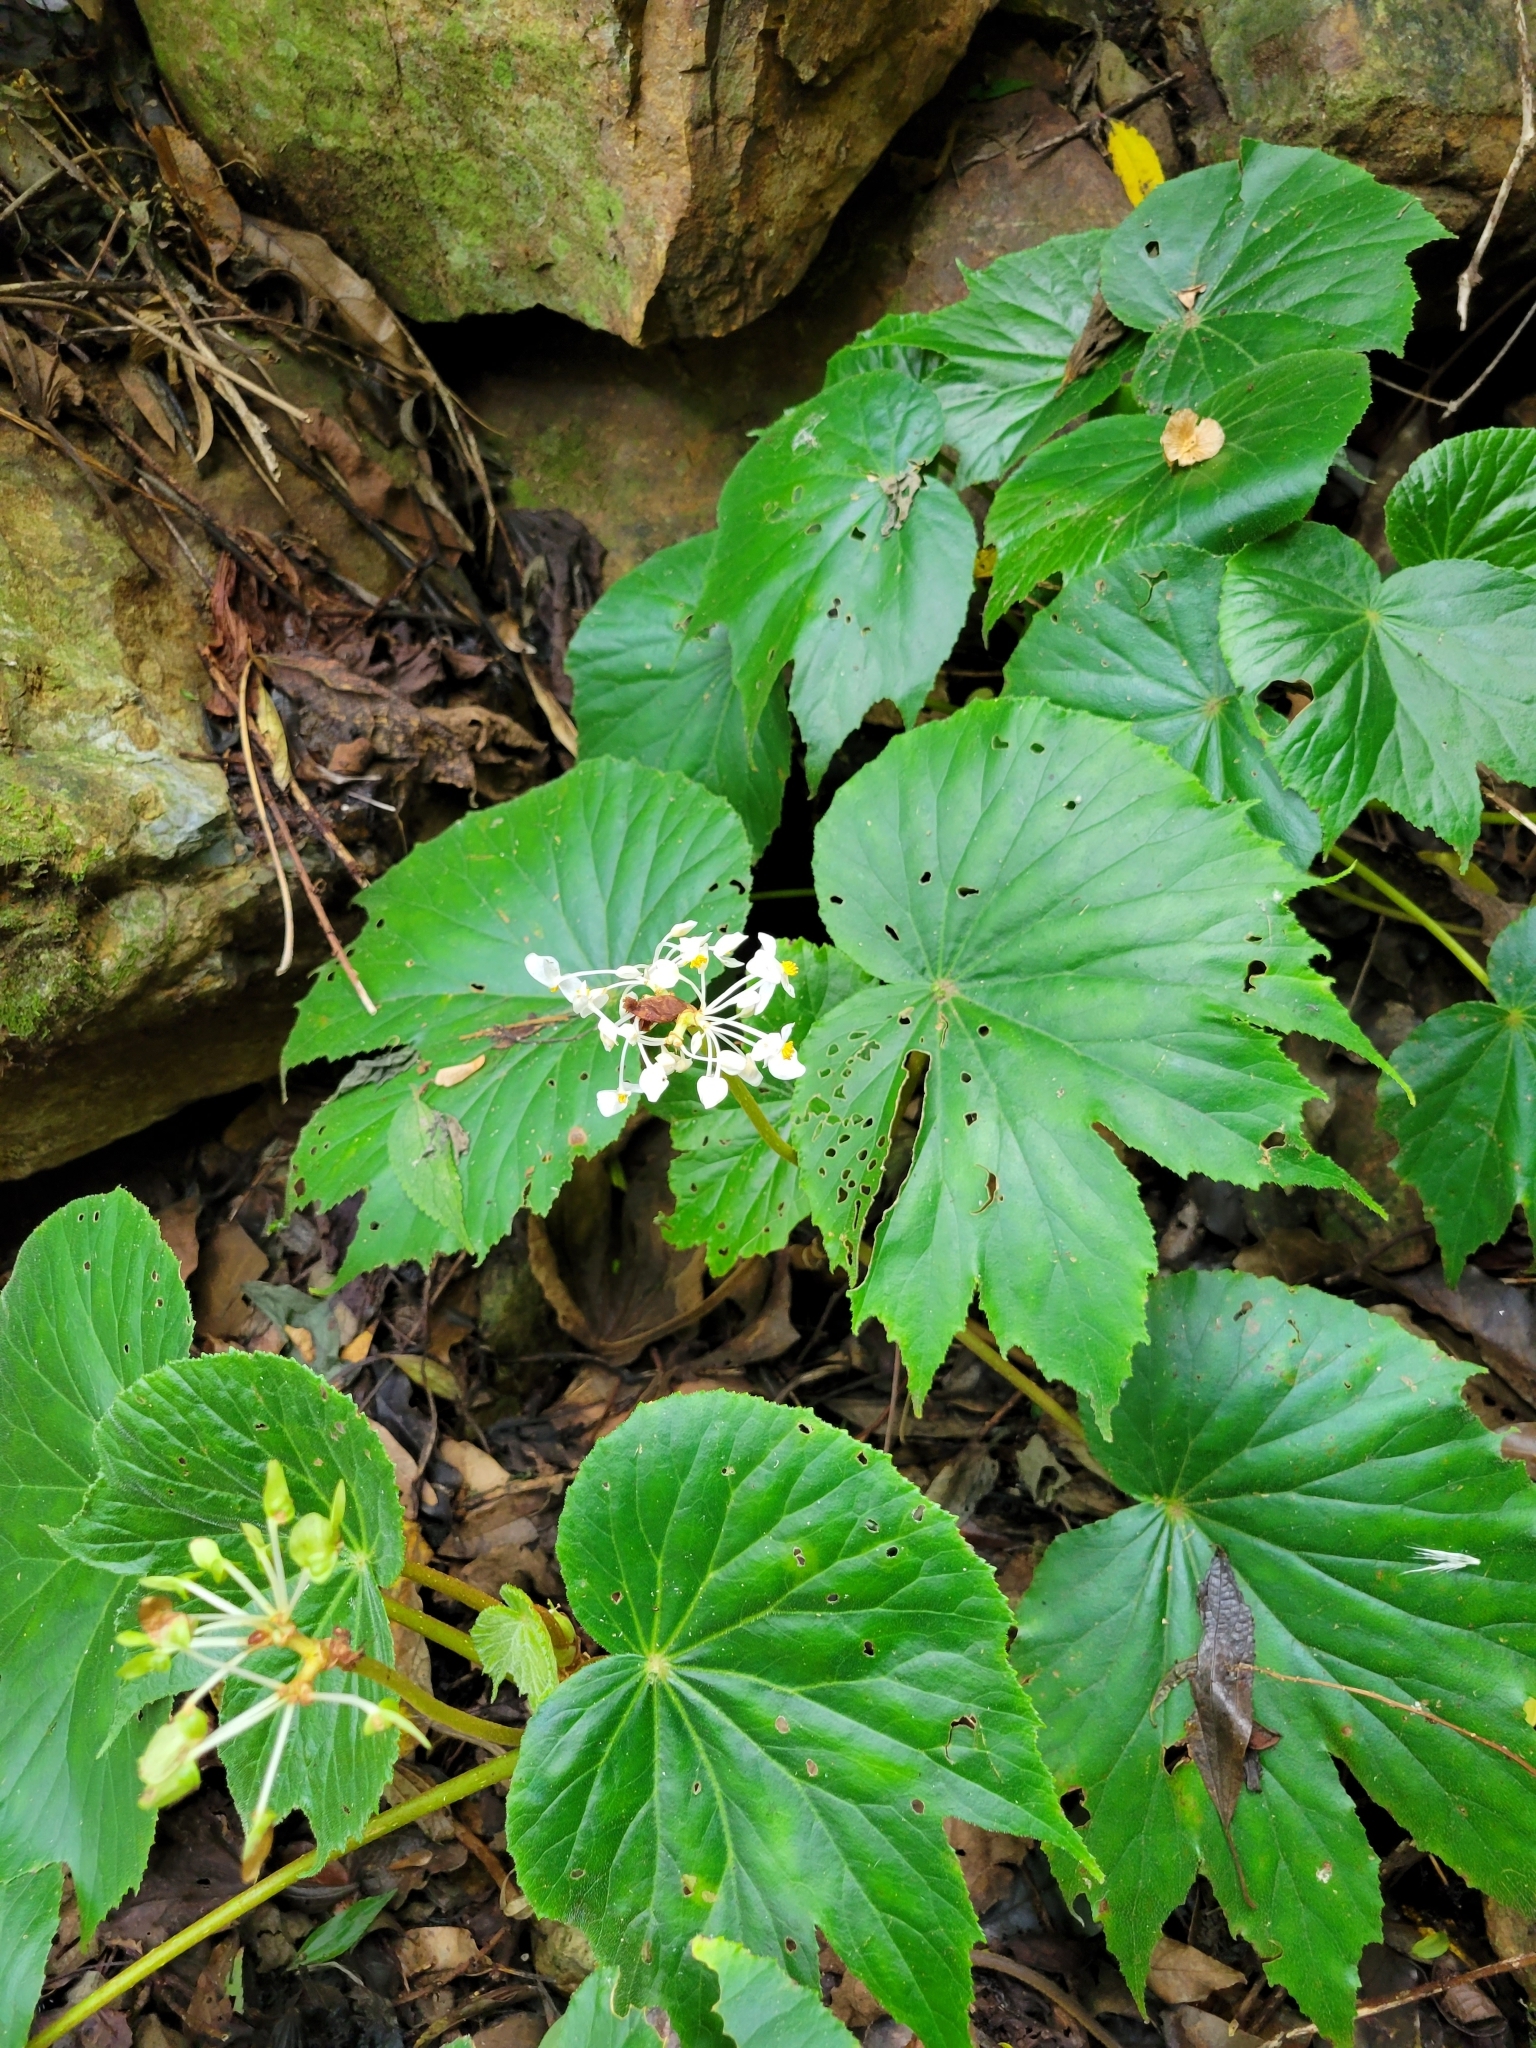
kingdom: Plantae
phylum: Tracheophyta
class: Magnoliopsida
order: Cucurbitales
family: Begoniaceae
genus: Begonia
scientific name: Begonia involucrata
